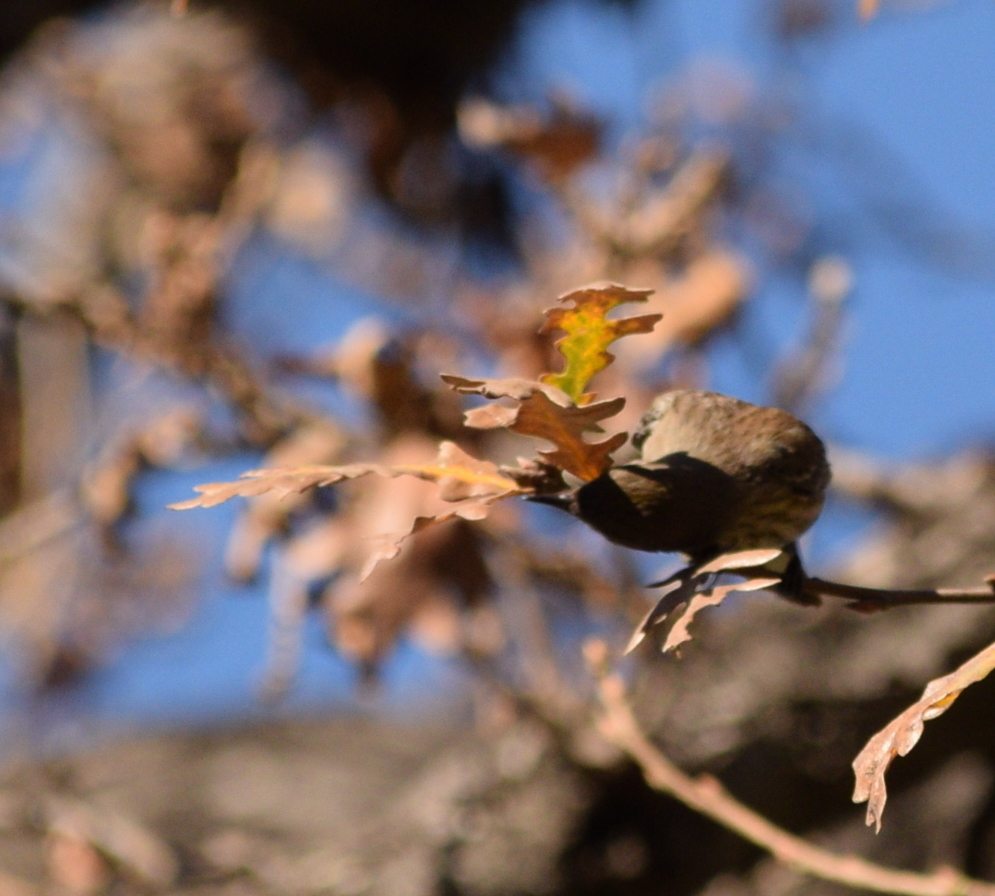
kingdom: Animalia
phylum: Chordata
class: Aves
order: Passeriformes
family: Parulidae
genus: Setophaga
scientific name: Setophaga coronata
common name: Myrtle warbler
